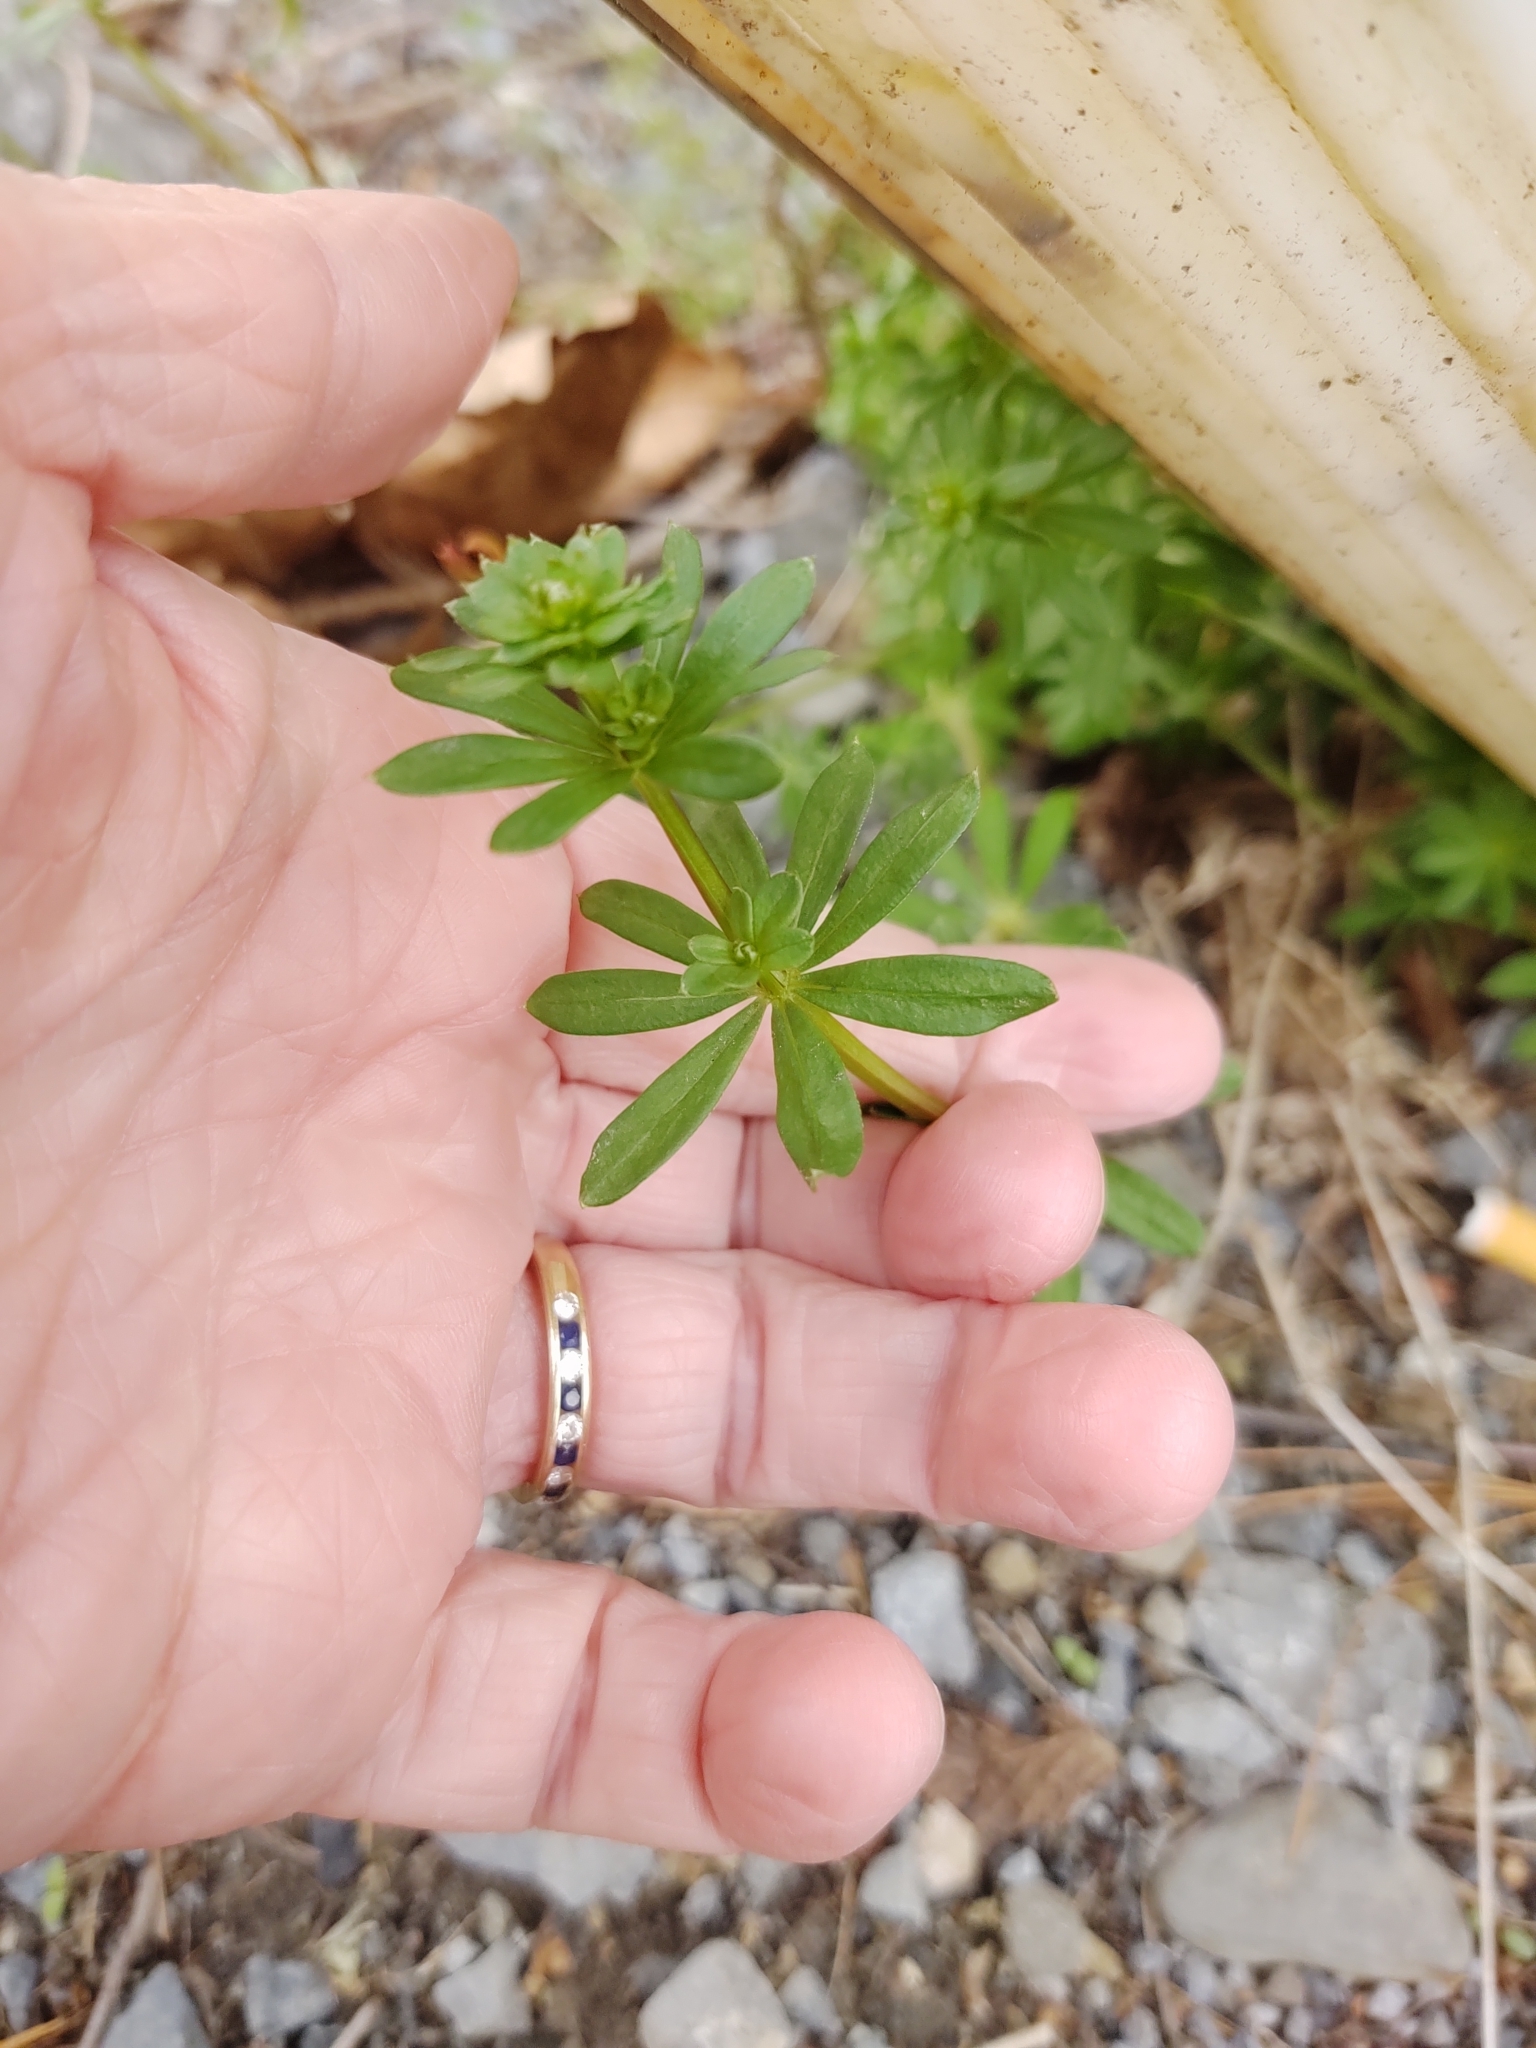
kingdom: Plantae
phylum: Tracheophyta
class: Magnoliopsida
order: Gentianales
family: Rubiaceae
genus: Galium
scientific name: Galium mollugo
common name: Hedge bedstraw
